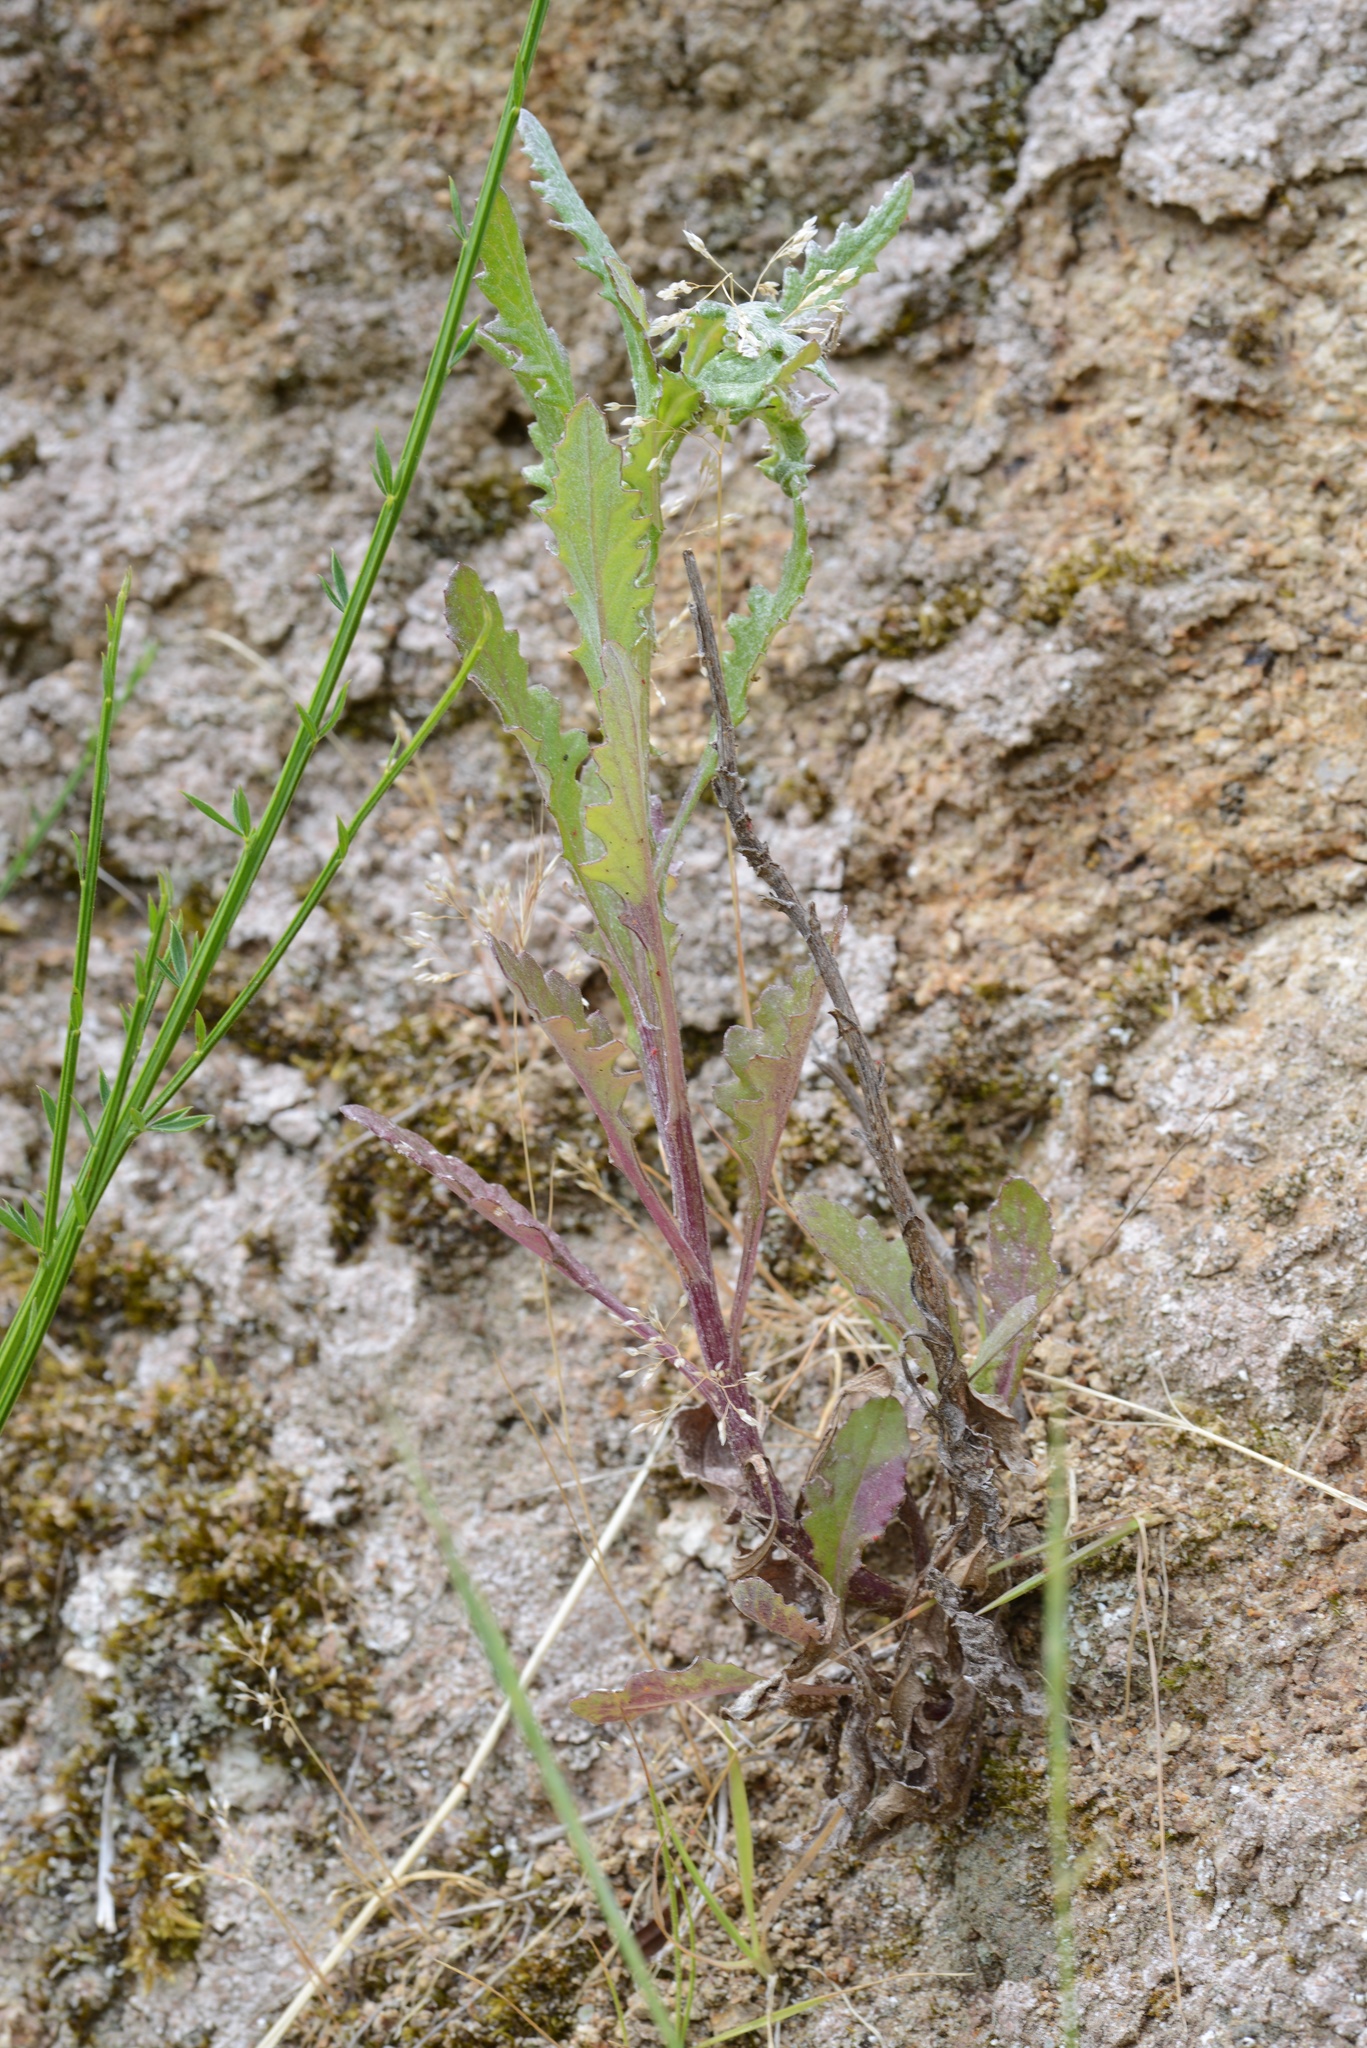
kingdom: Plantae
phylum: Tracheophyta
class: Magnoliopsida
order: Asterales
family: Asteraceae
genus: Senecio
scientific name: Senecio glomeratus
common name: Cutleaf burnweed
